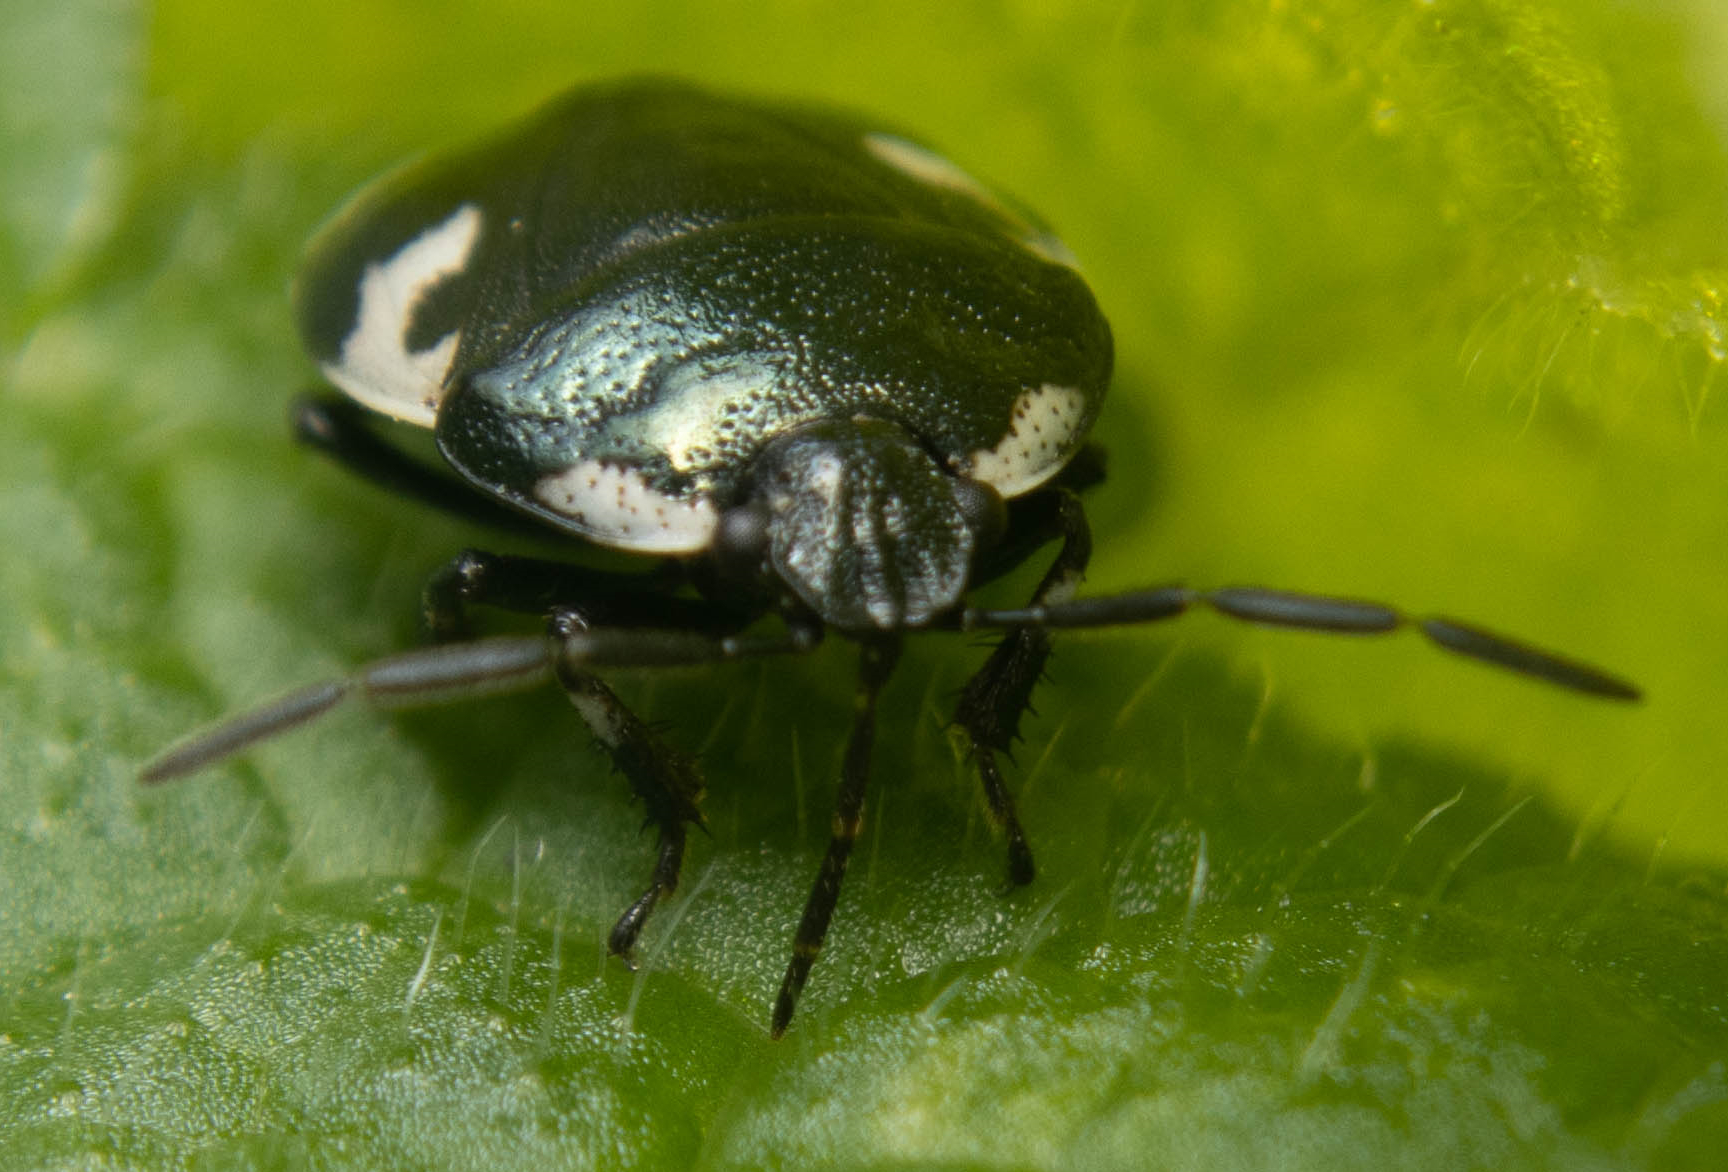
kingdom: Animalia
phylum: Arthropoda
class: Insecta
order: Hemiptera
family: Cydnidae
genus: Tritomegas
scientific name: Tritomegas bicolor
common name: Pied shieldbug
